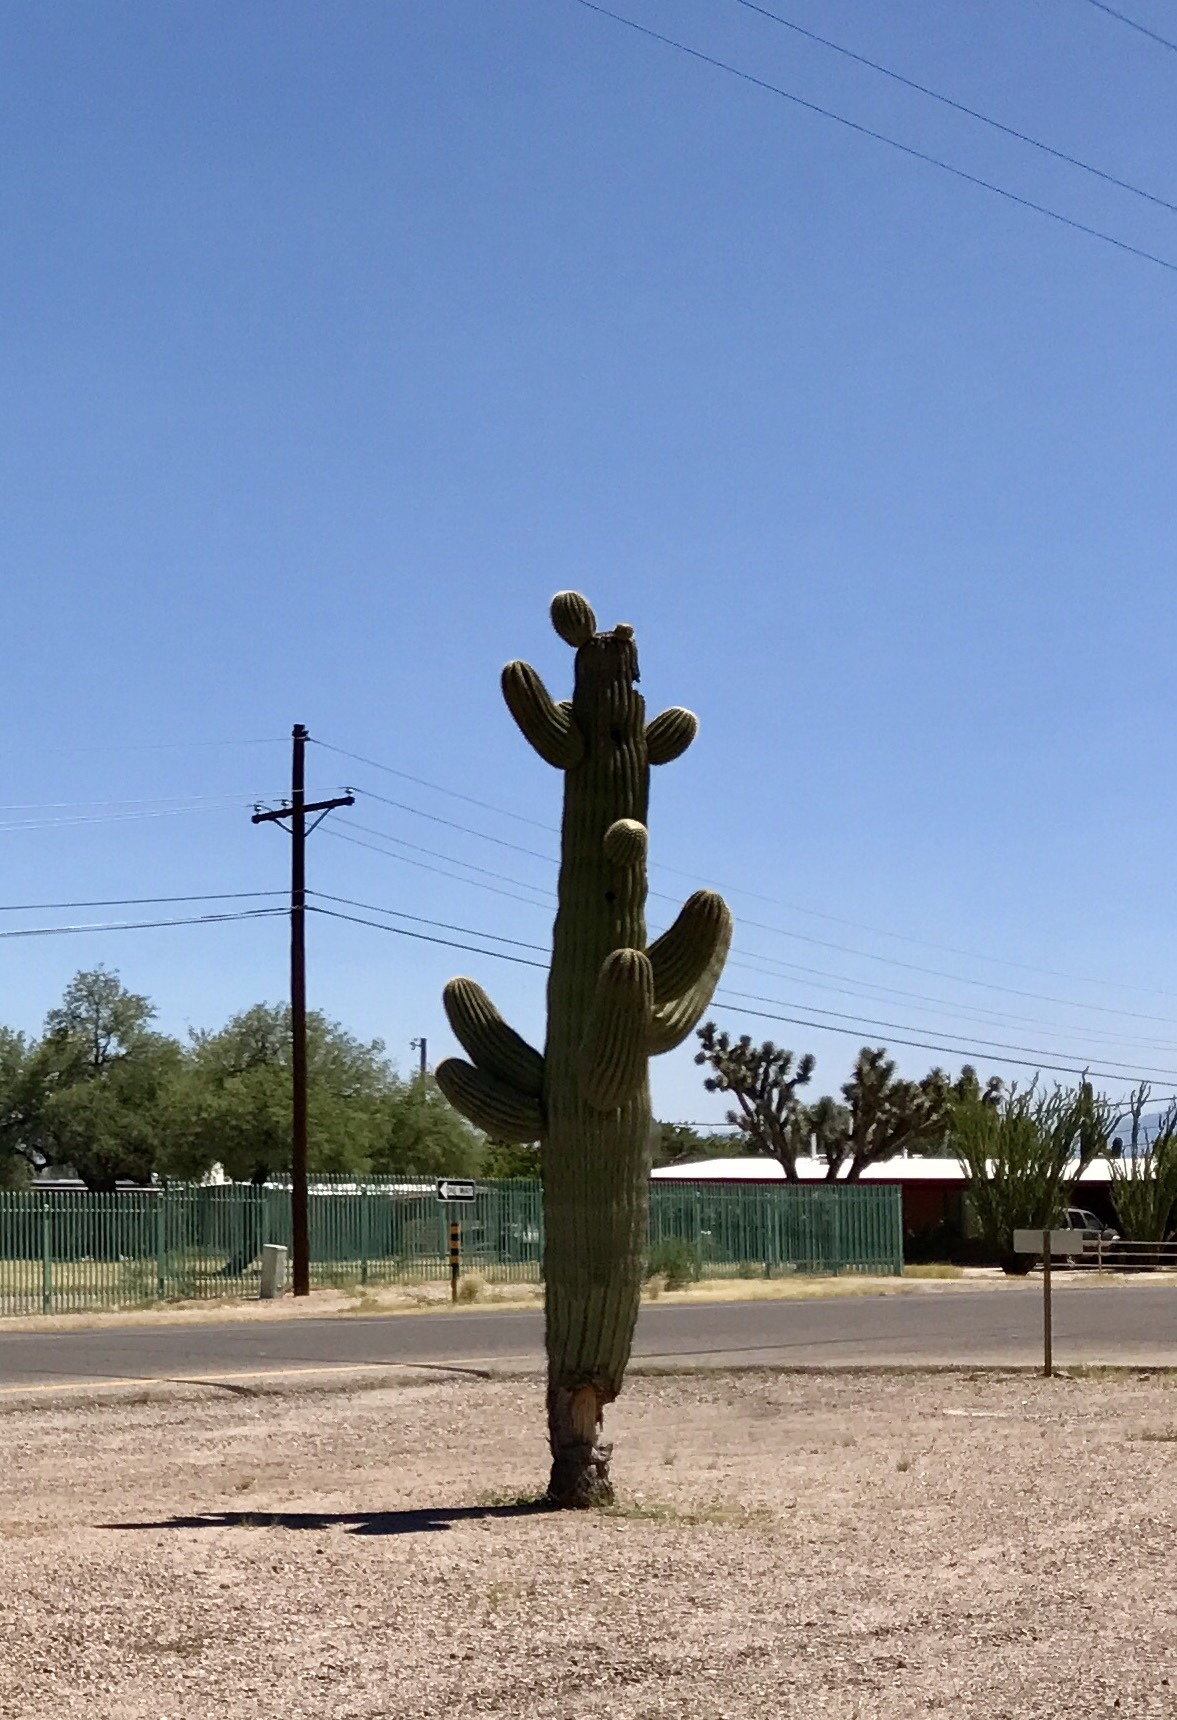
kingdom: Plantae
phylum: Tracheophyta
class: Magnoliopsida
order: Caryophyllales
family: Cactaceae
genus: Carnegiea
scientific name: Carnegiea gigantea
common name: Saguaro
